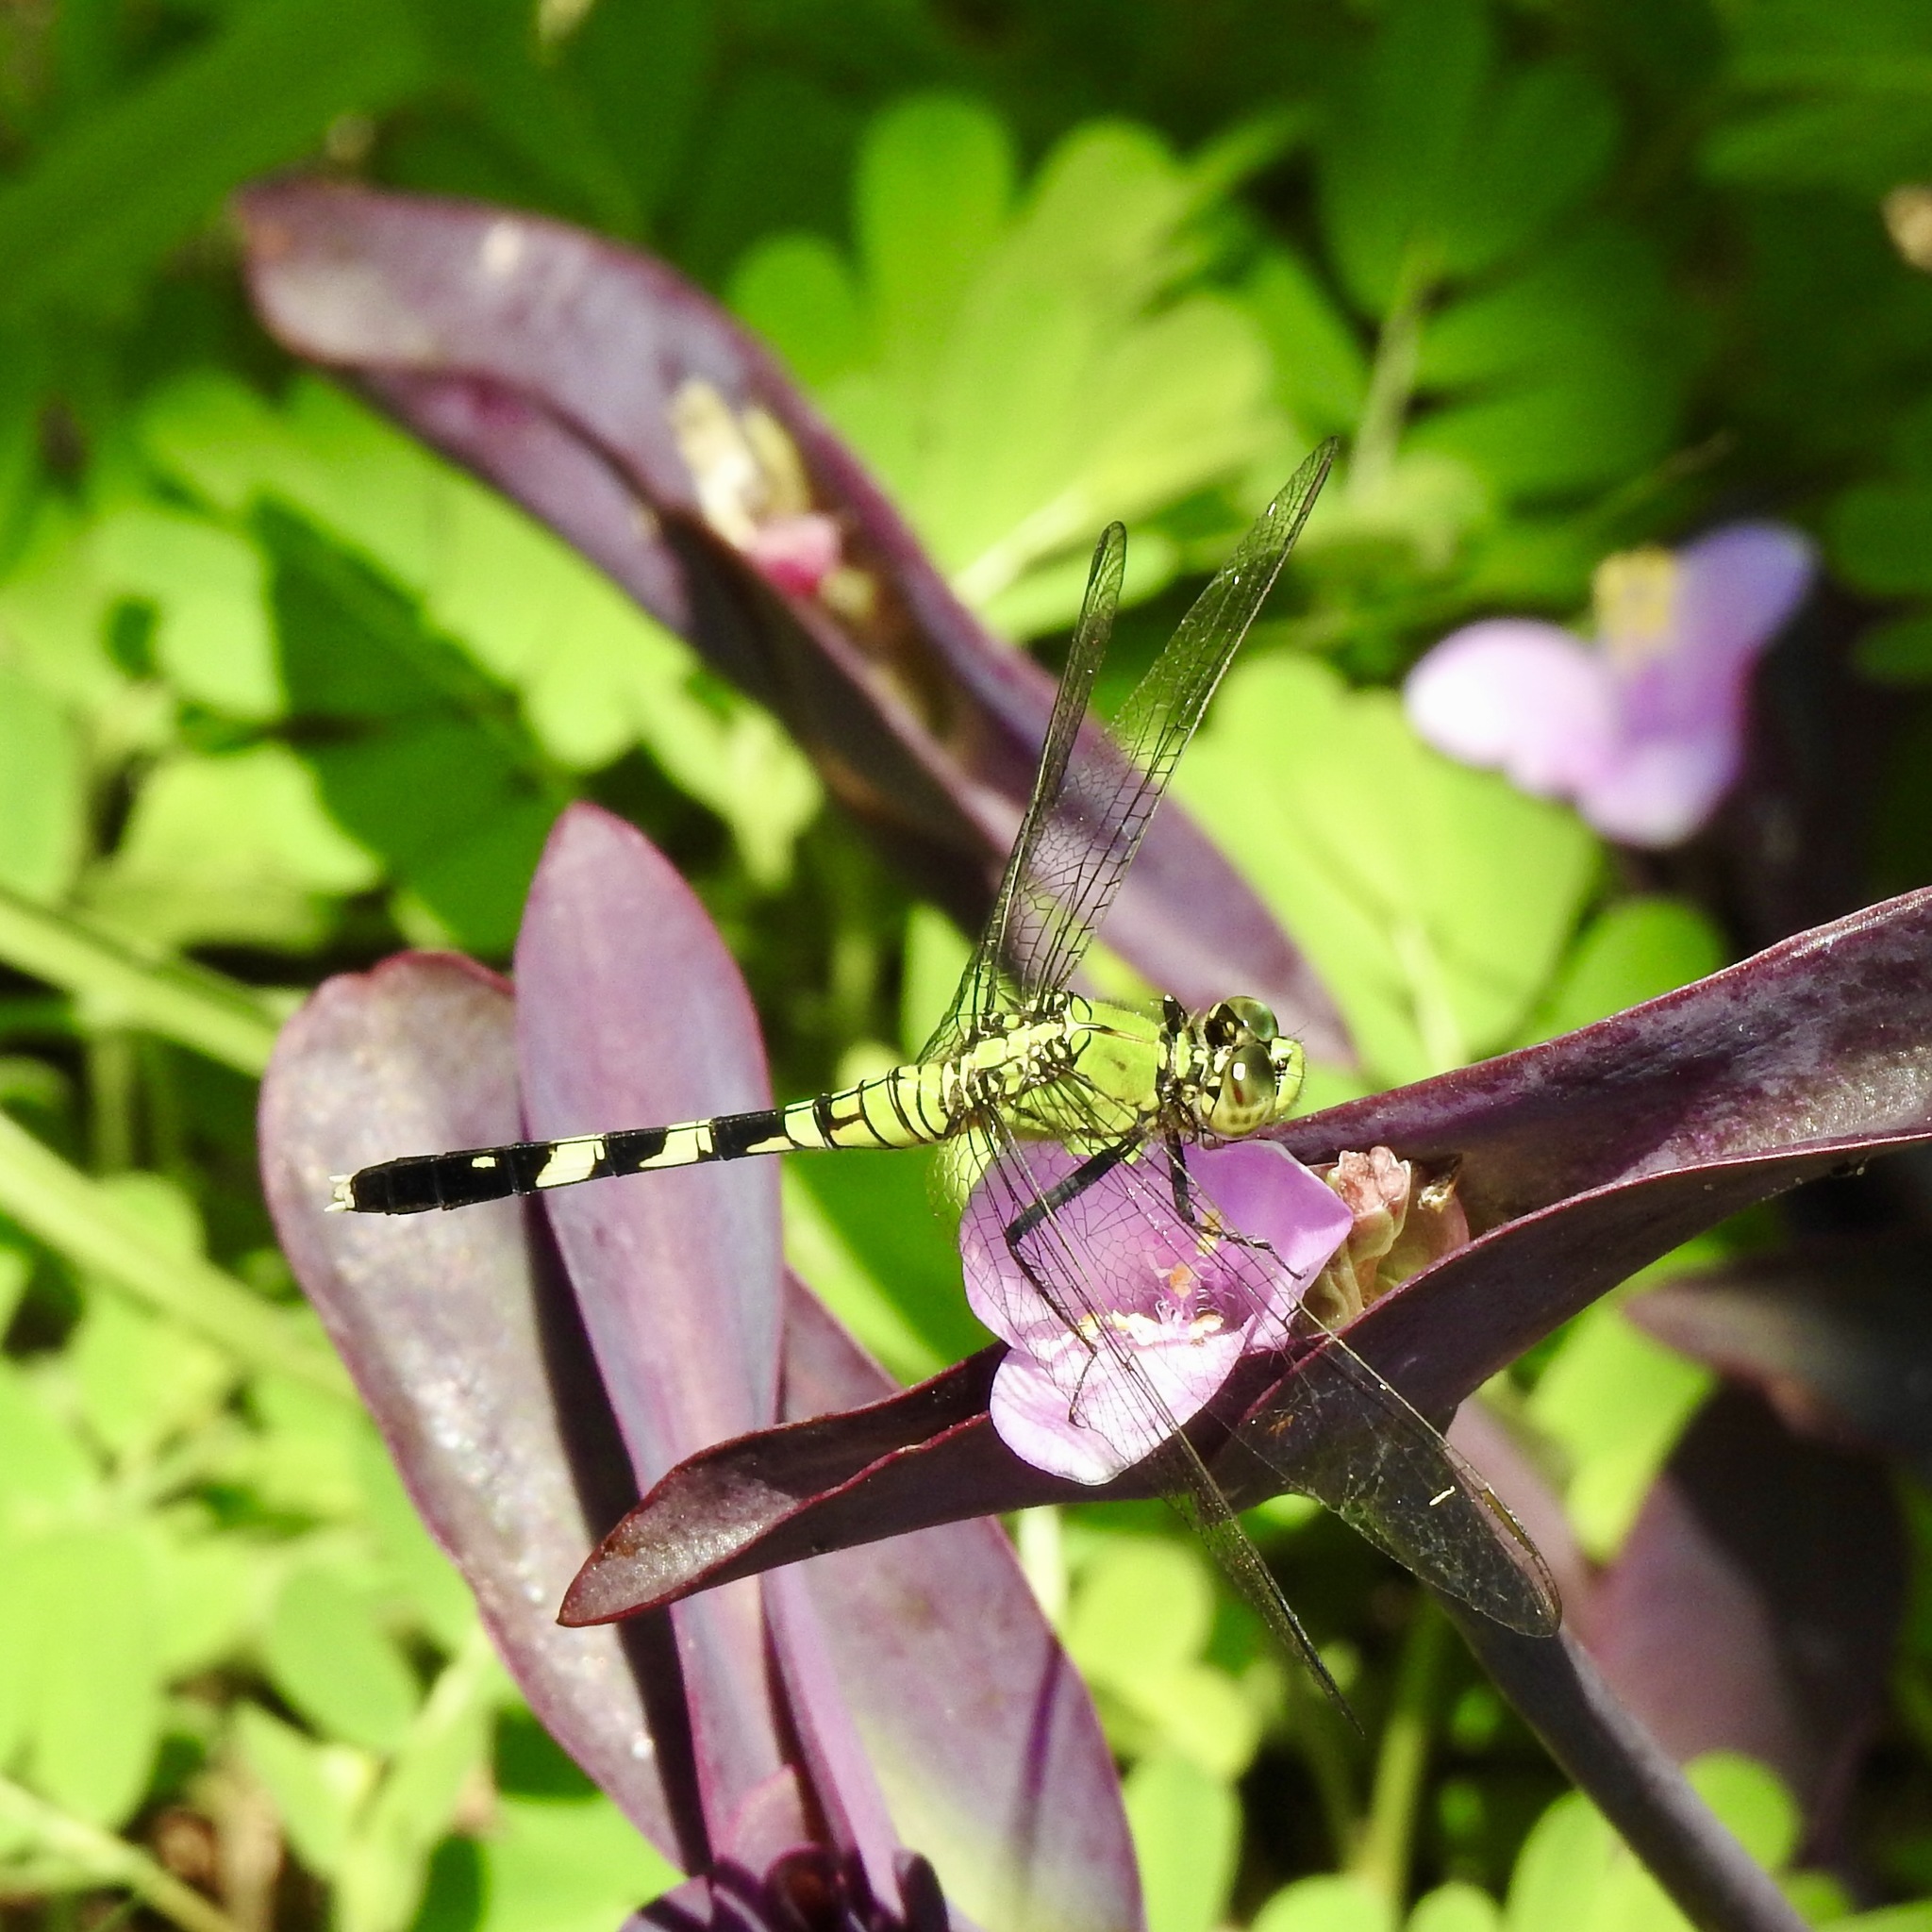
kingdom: Animalia
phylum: Arthropoda
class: Insecta
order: Odonata
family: Libellulidae
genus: Erythemis
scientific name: Erythemis simplicicollis
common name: Eastern pondhawk
